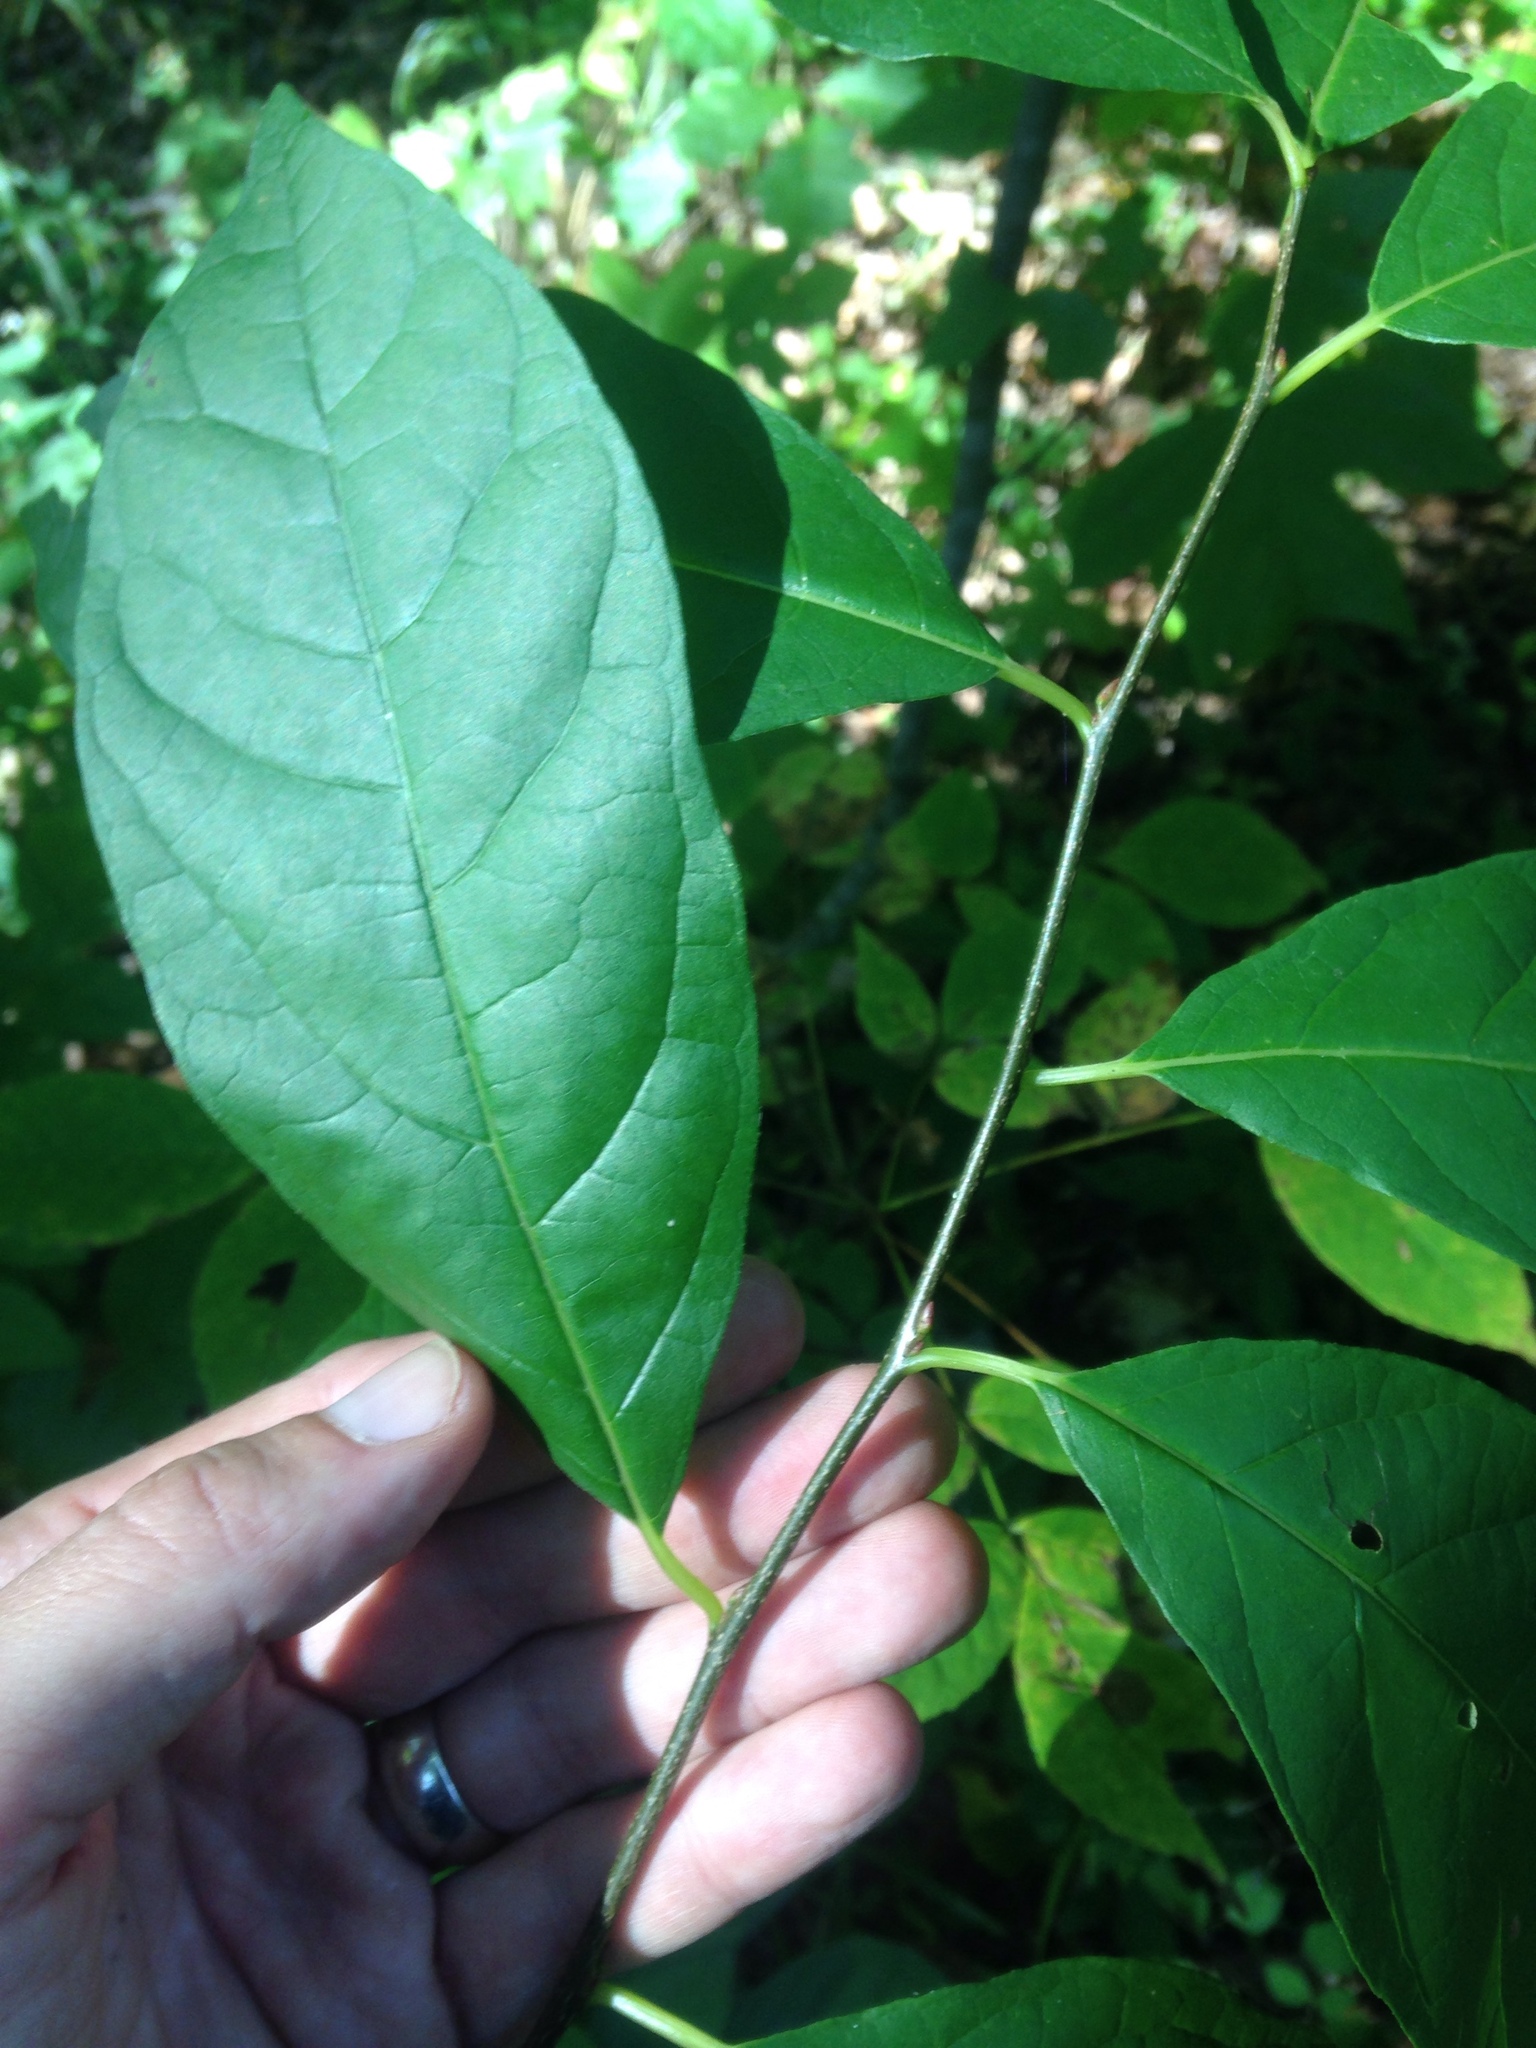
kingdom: Plantae
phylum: Tracheophyta
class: Magnoliopsida
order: Laurales
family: Lauraceae
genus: Lindera
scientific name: Lindera benzoin
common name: Spicebush
